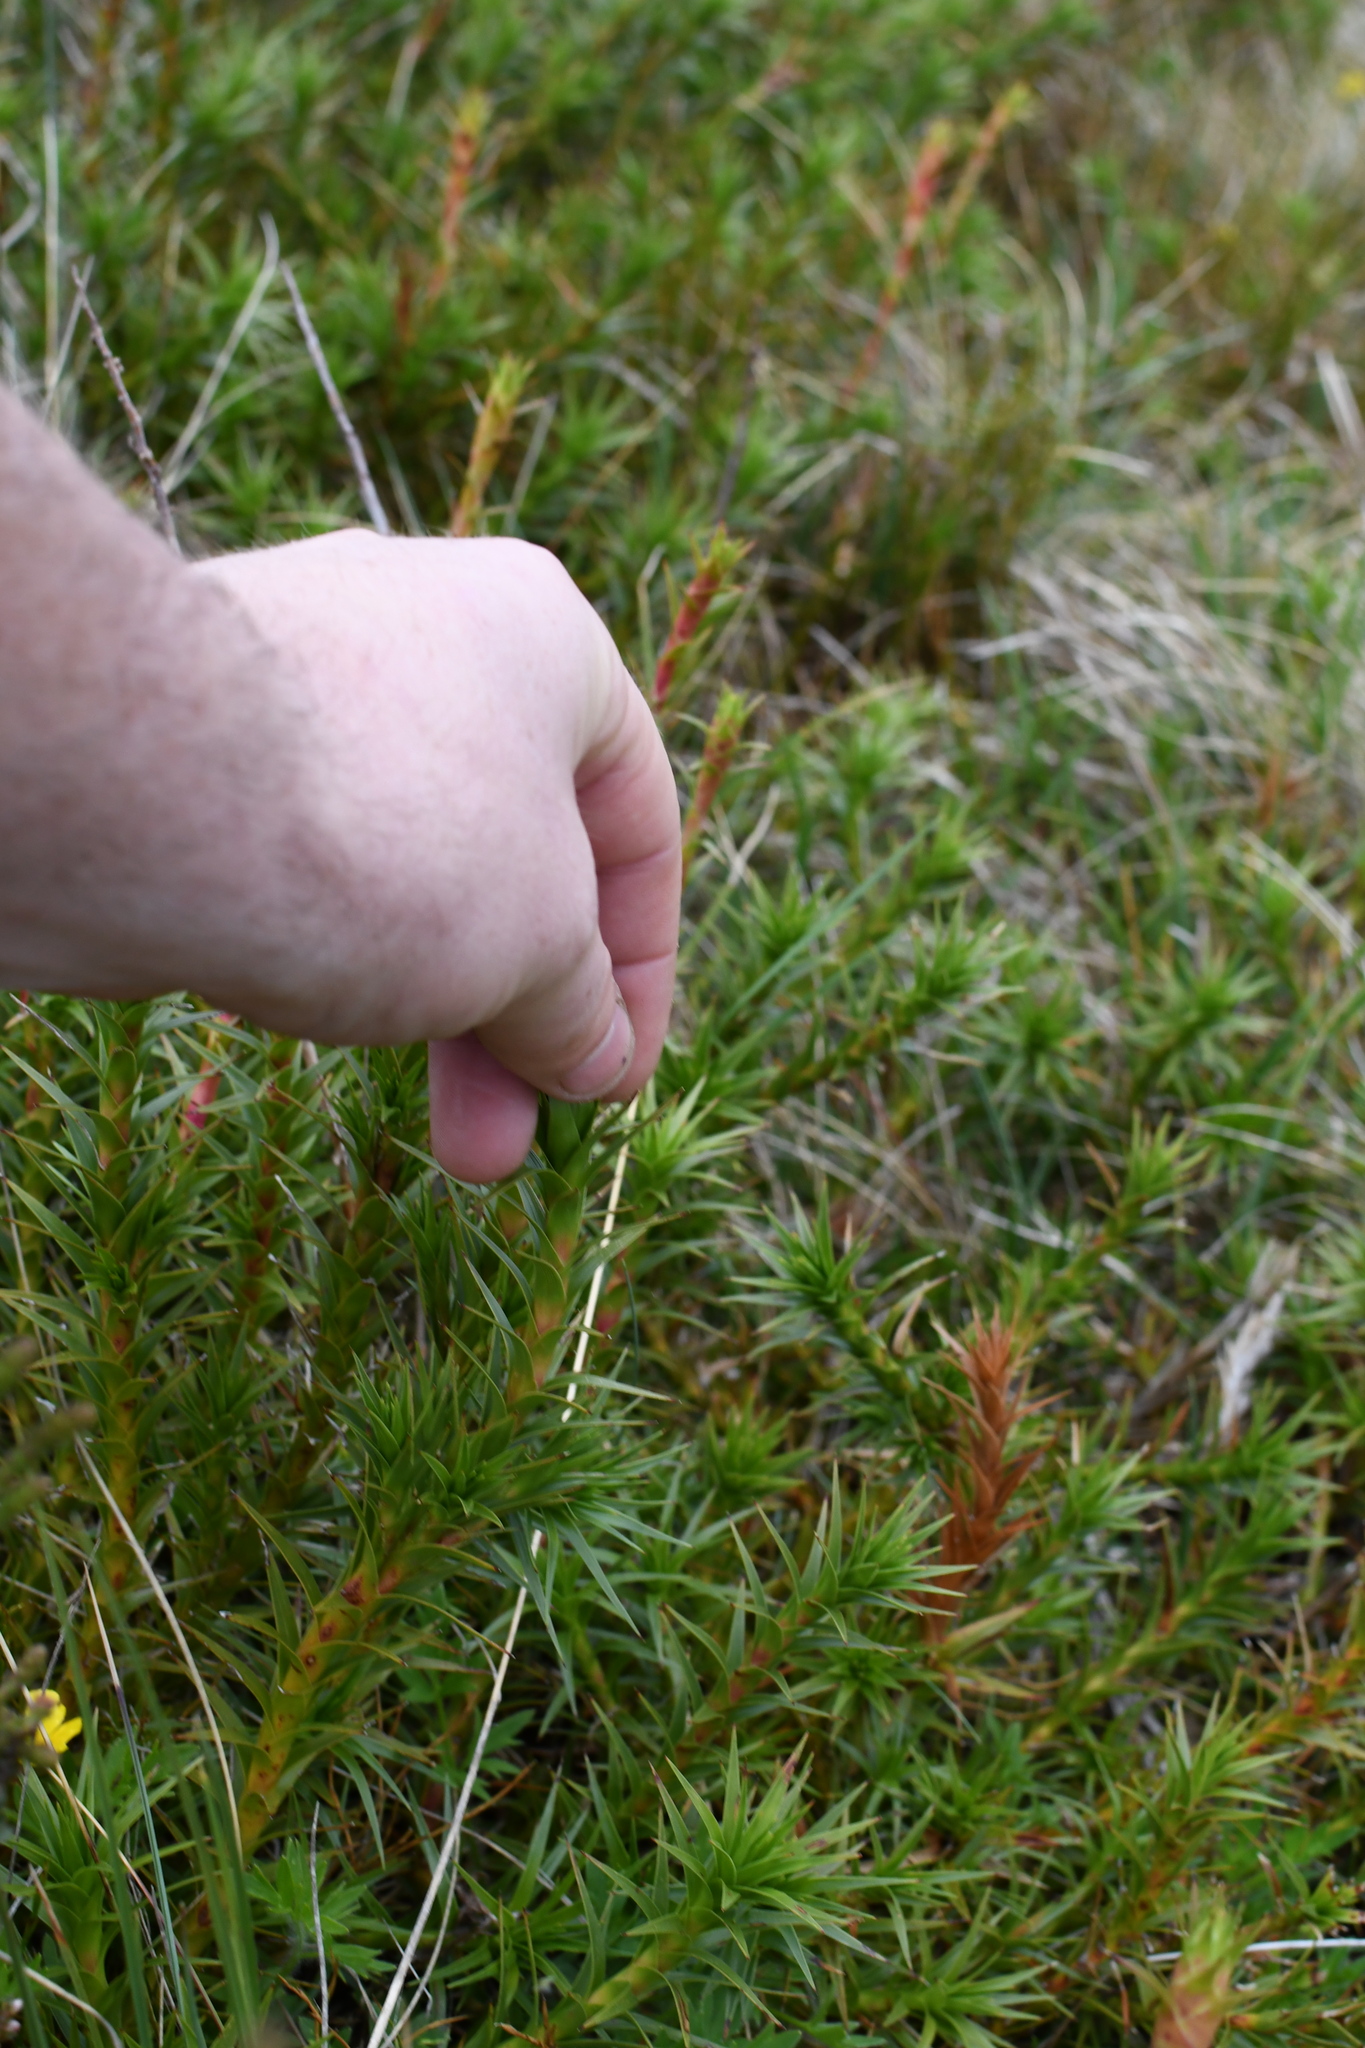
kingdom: Plantae
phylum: Tracheophyta
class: Magnoliopsida
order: Ericales
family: Ericaceae
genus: Dracophyllum
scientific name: Dracophyllum continentis
